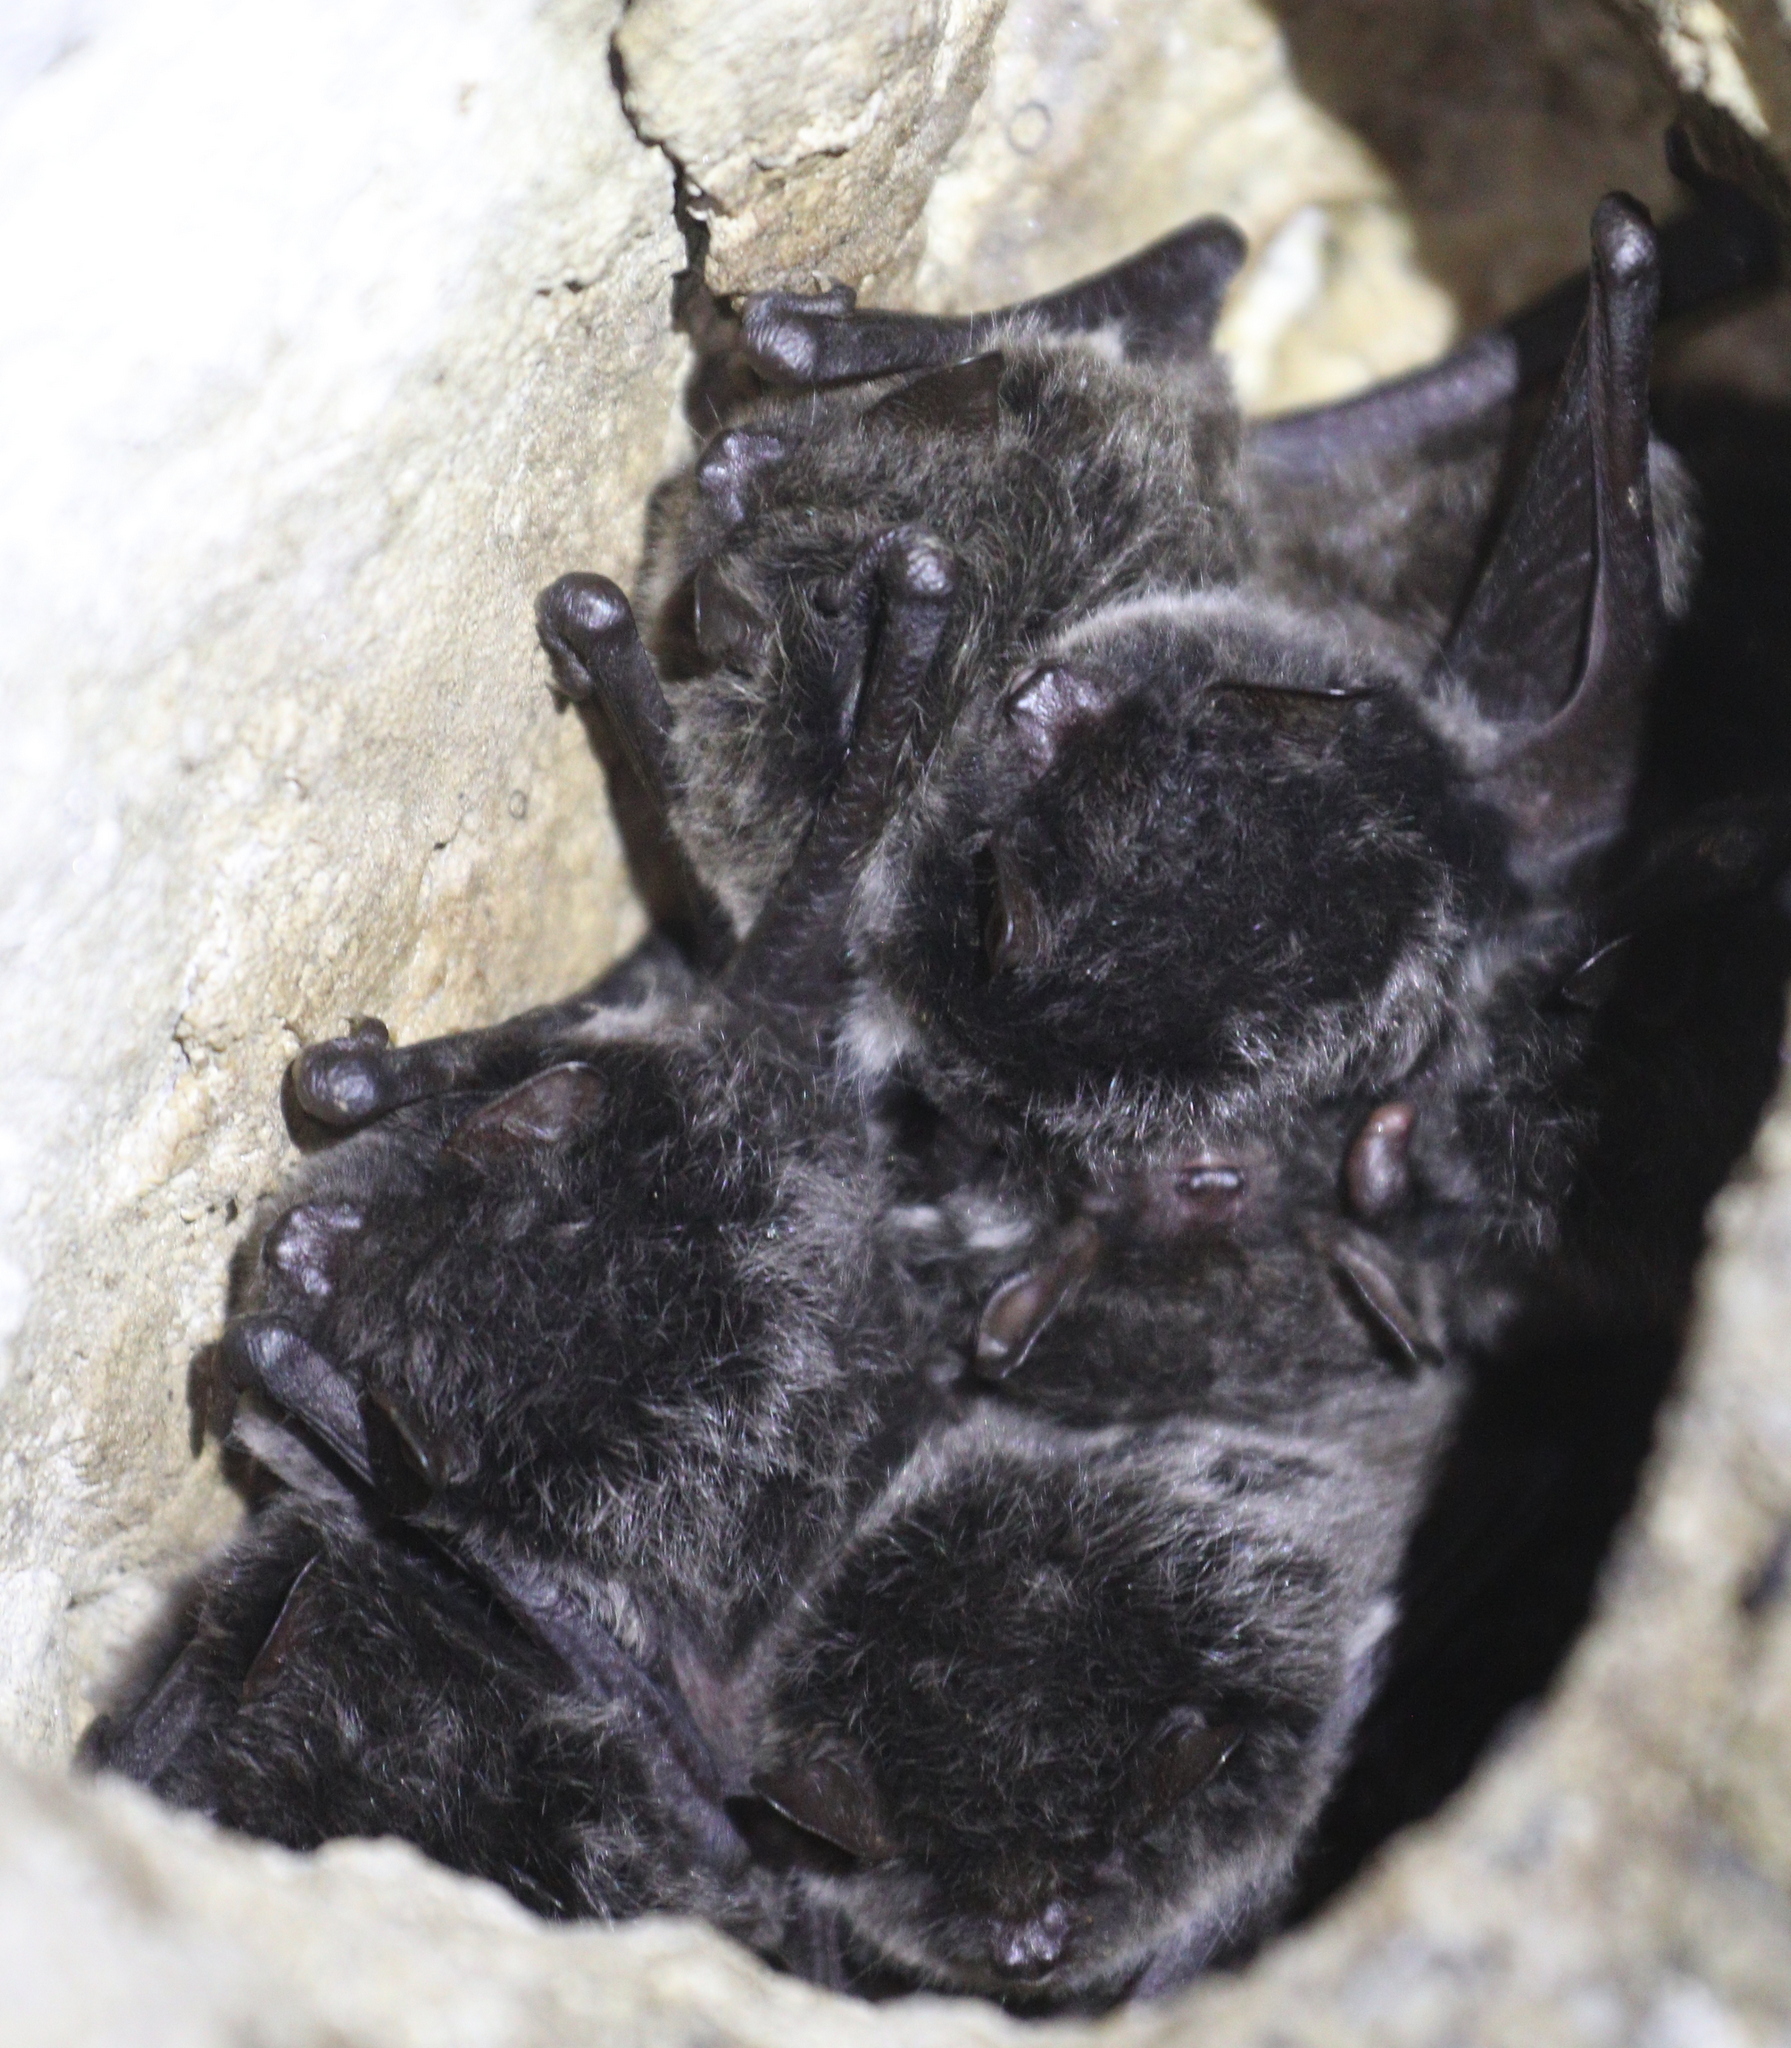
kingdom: Animalia
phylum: Chordata
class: Mammalia
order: Chiroptera
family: Vespertilionidae
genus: Myotis
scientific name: Myotis daubentonii
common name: Daubenton's myotis
